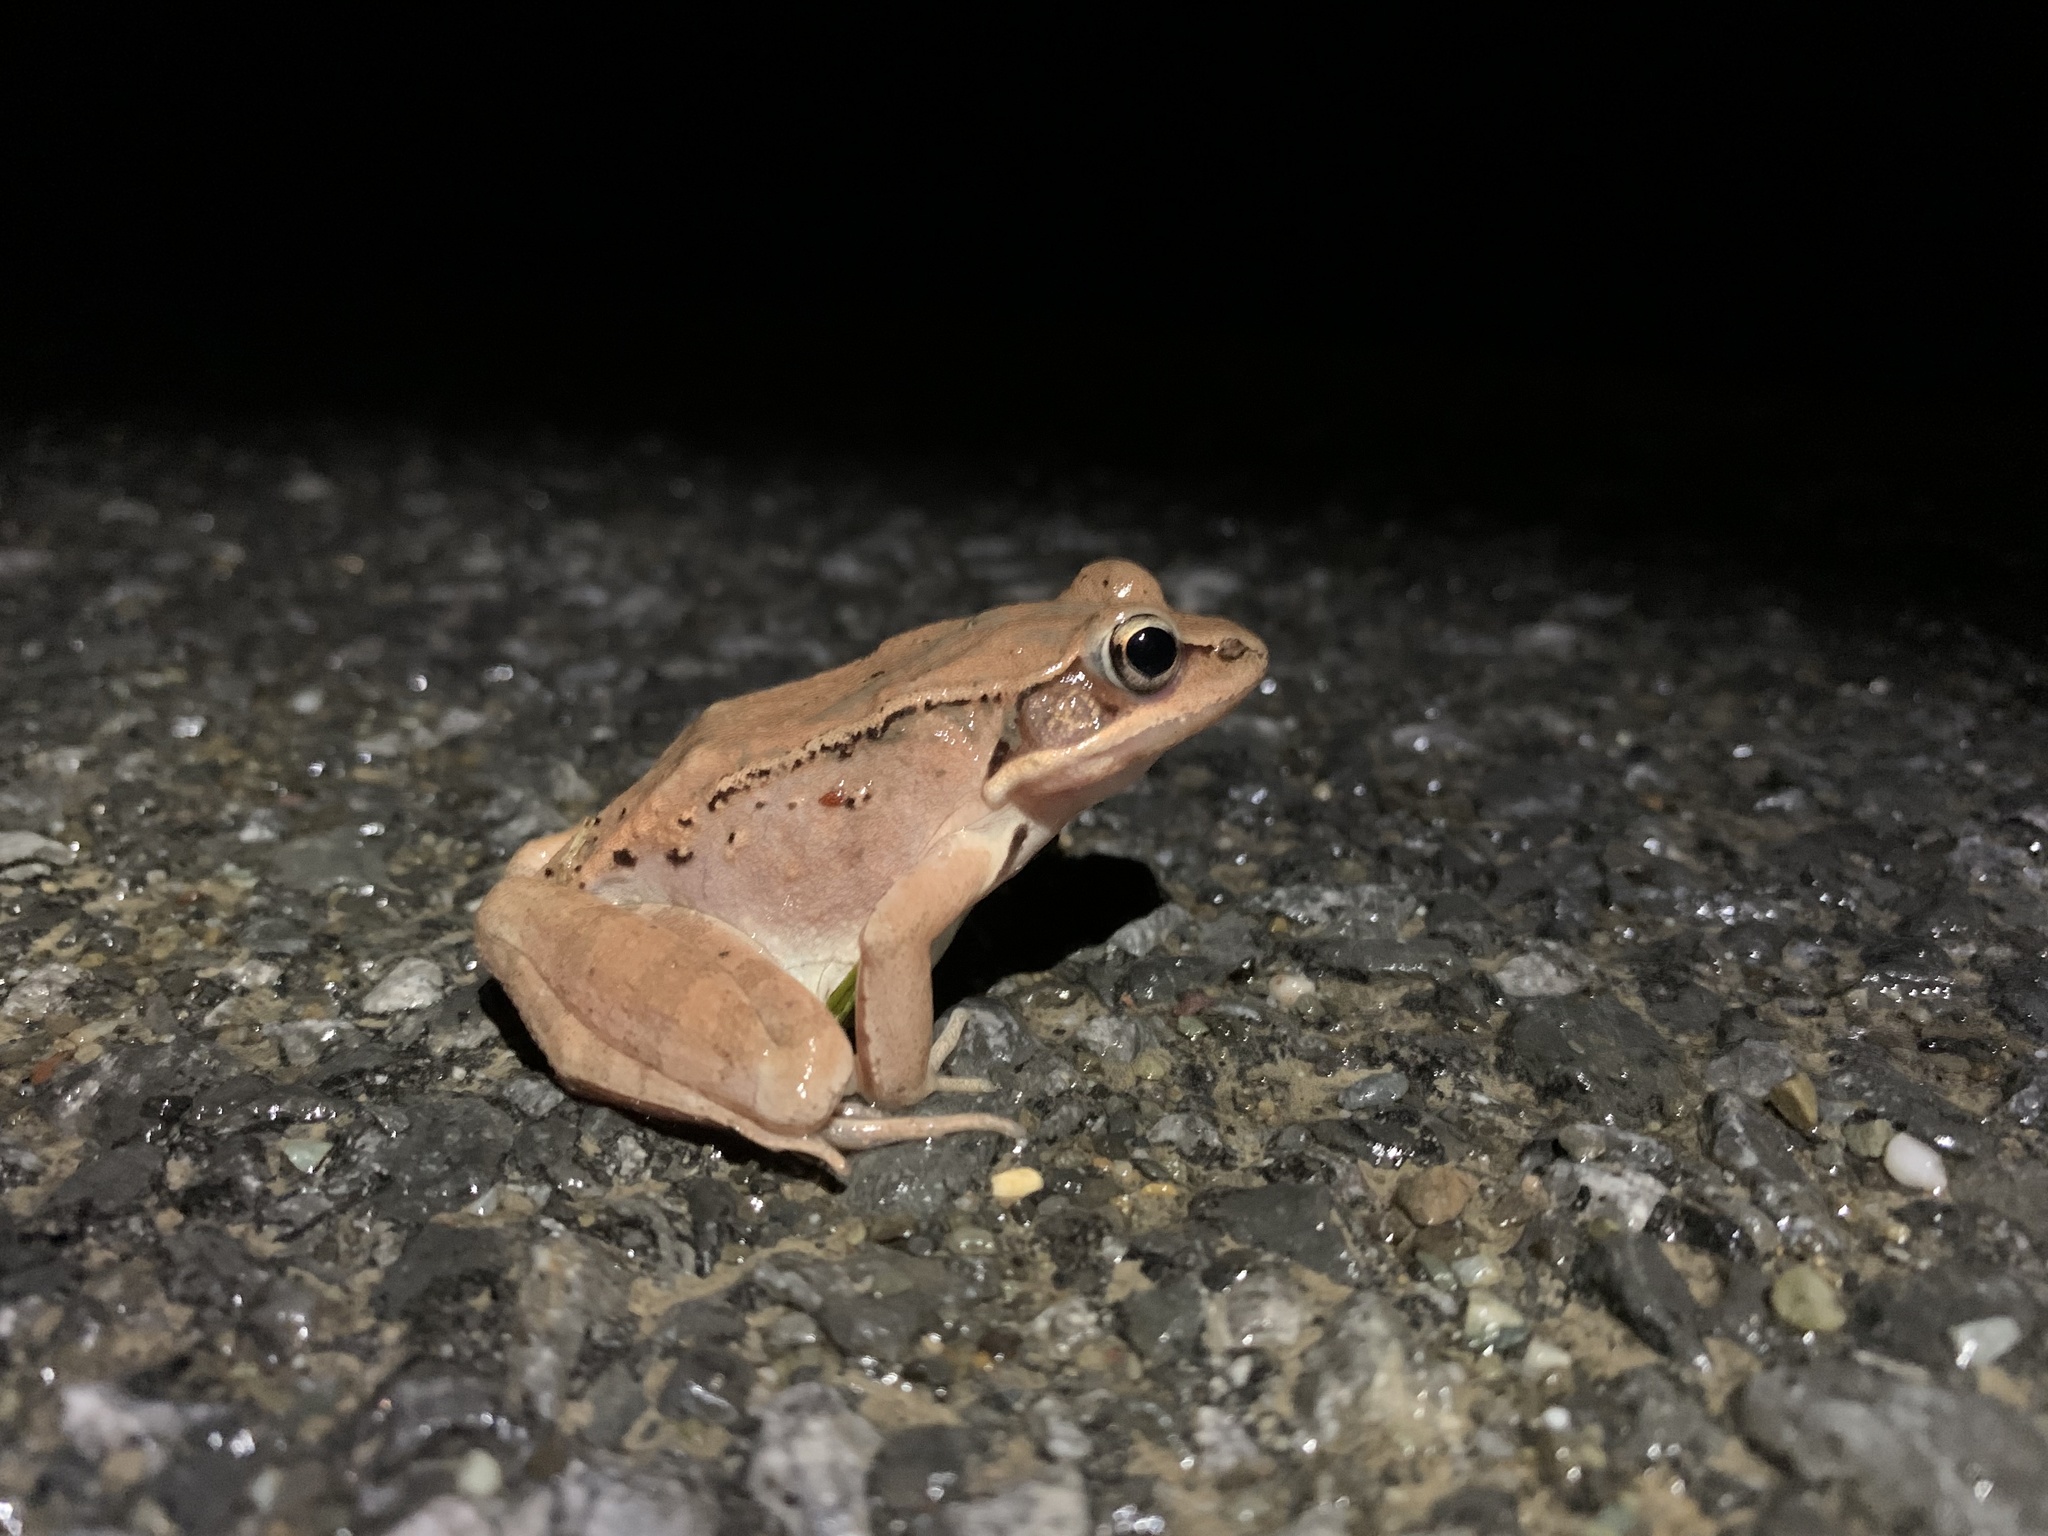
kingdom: Animalia
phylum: Chordata
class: Amphibia
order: Anura
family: Ranidae
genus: Lithobates
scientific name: Lithobates sylvaticus
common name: Wood frog
